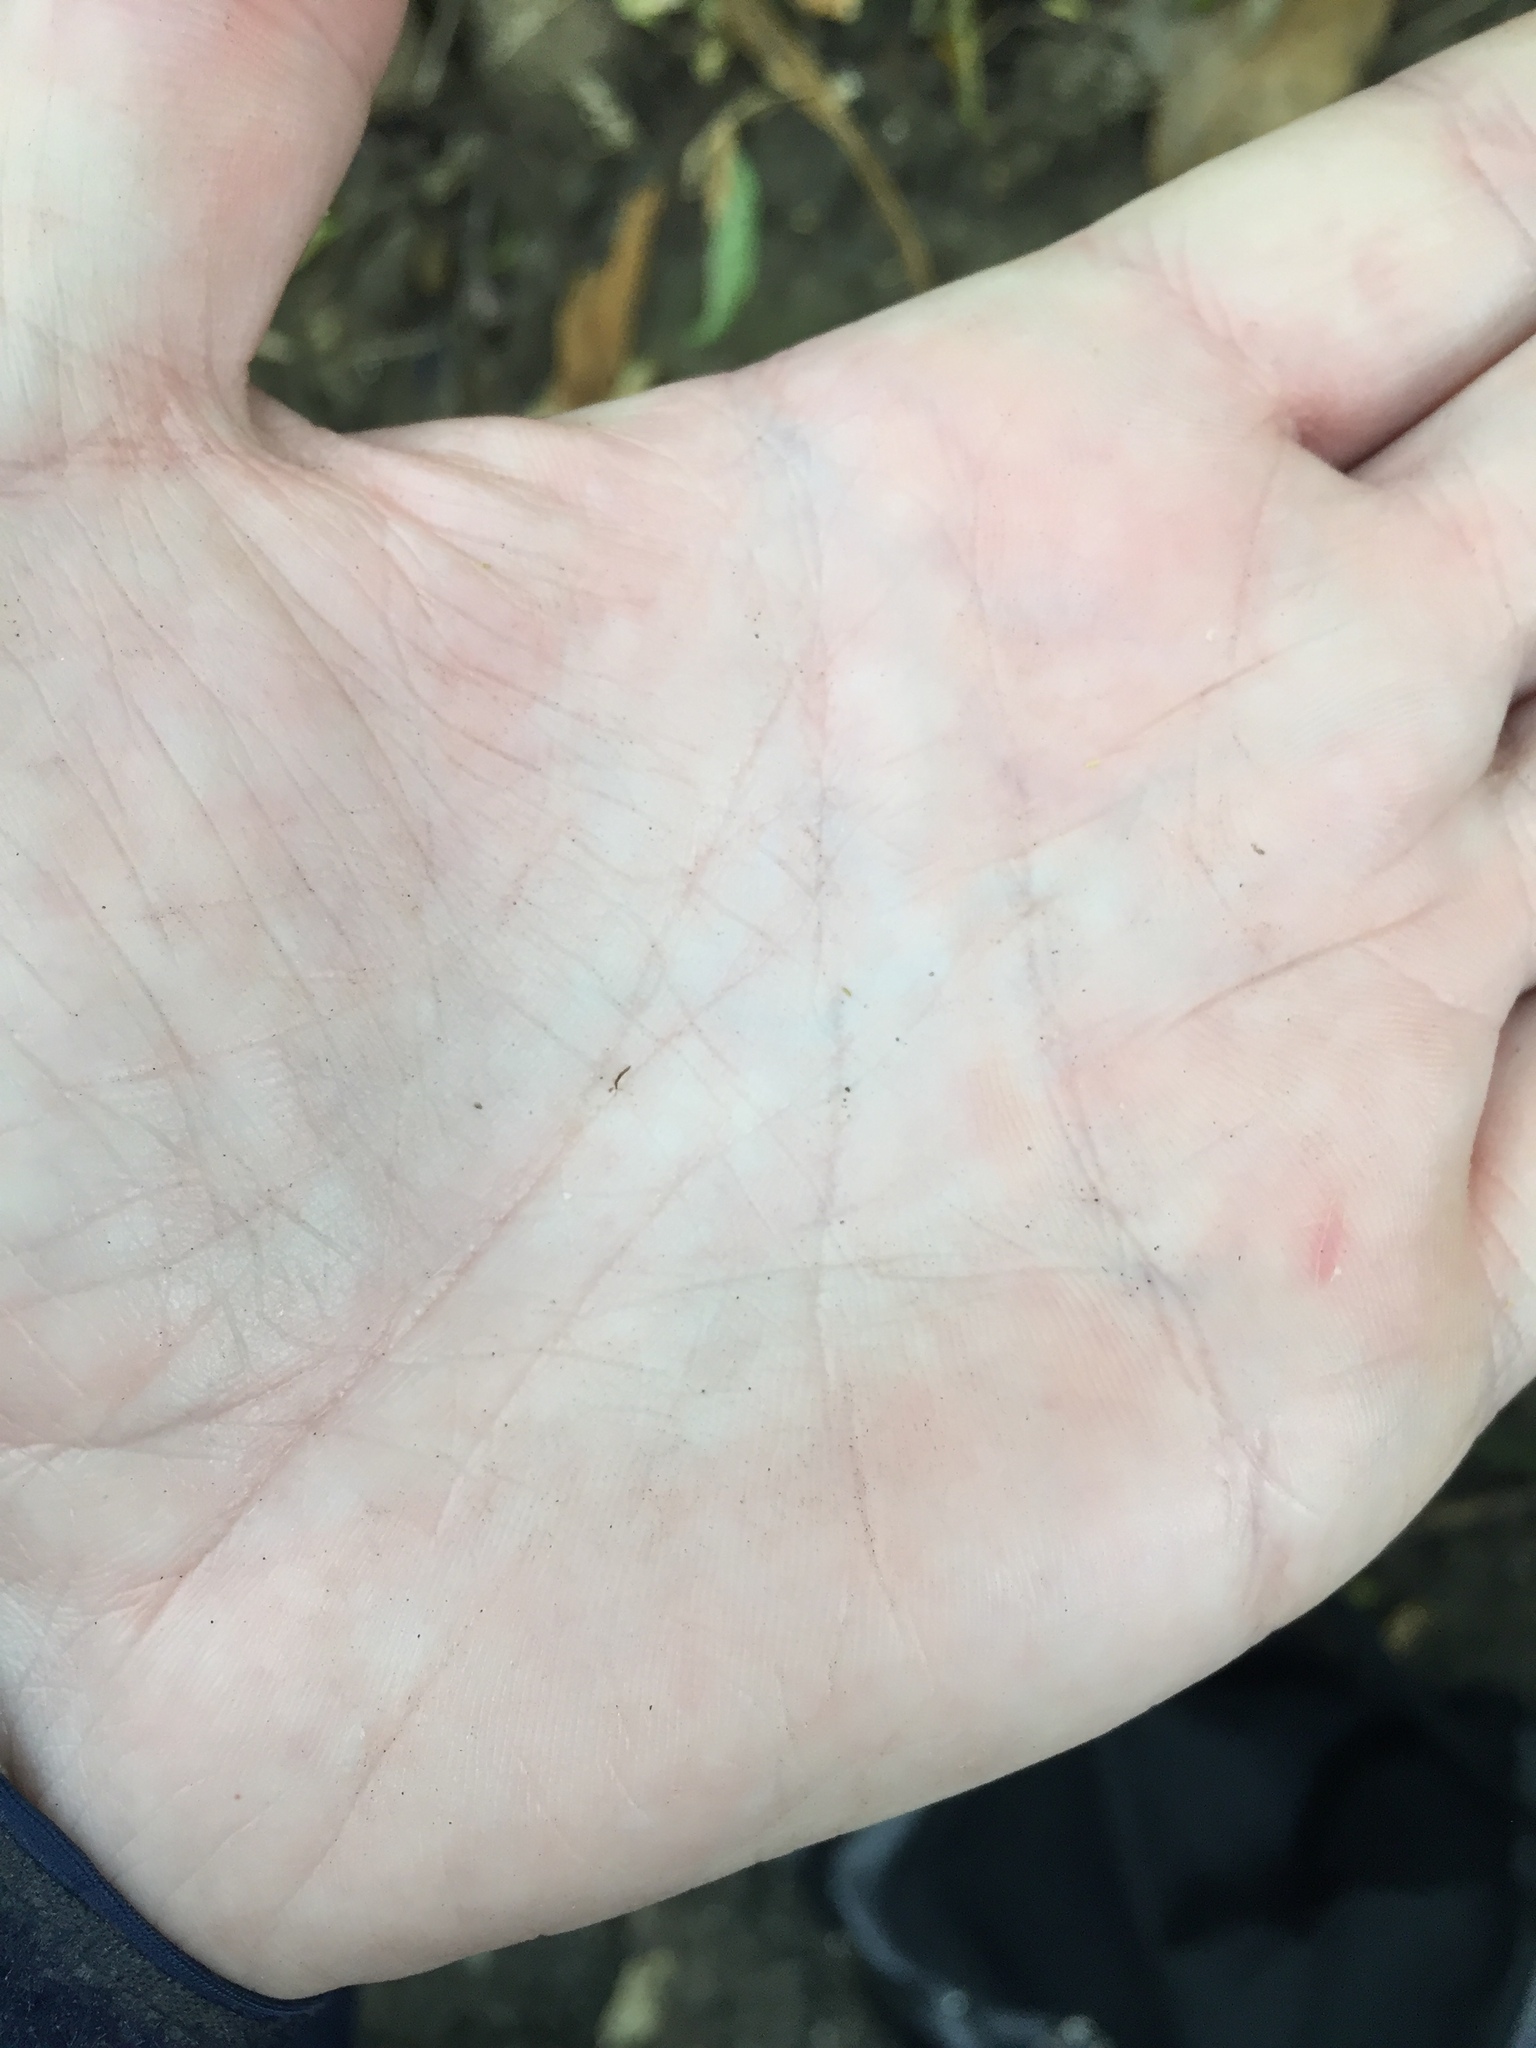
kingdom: Animalia
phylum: Arthropoda
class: Insecta
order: Coleoptera
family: Staphylinidae
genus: Zeoleusis
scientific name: Zeoleusis virgula
